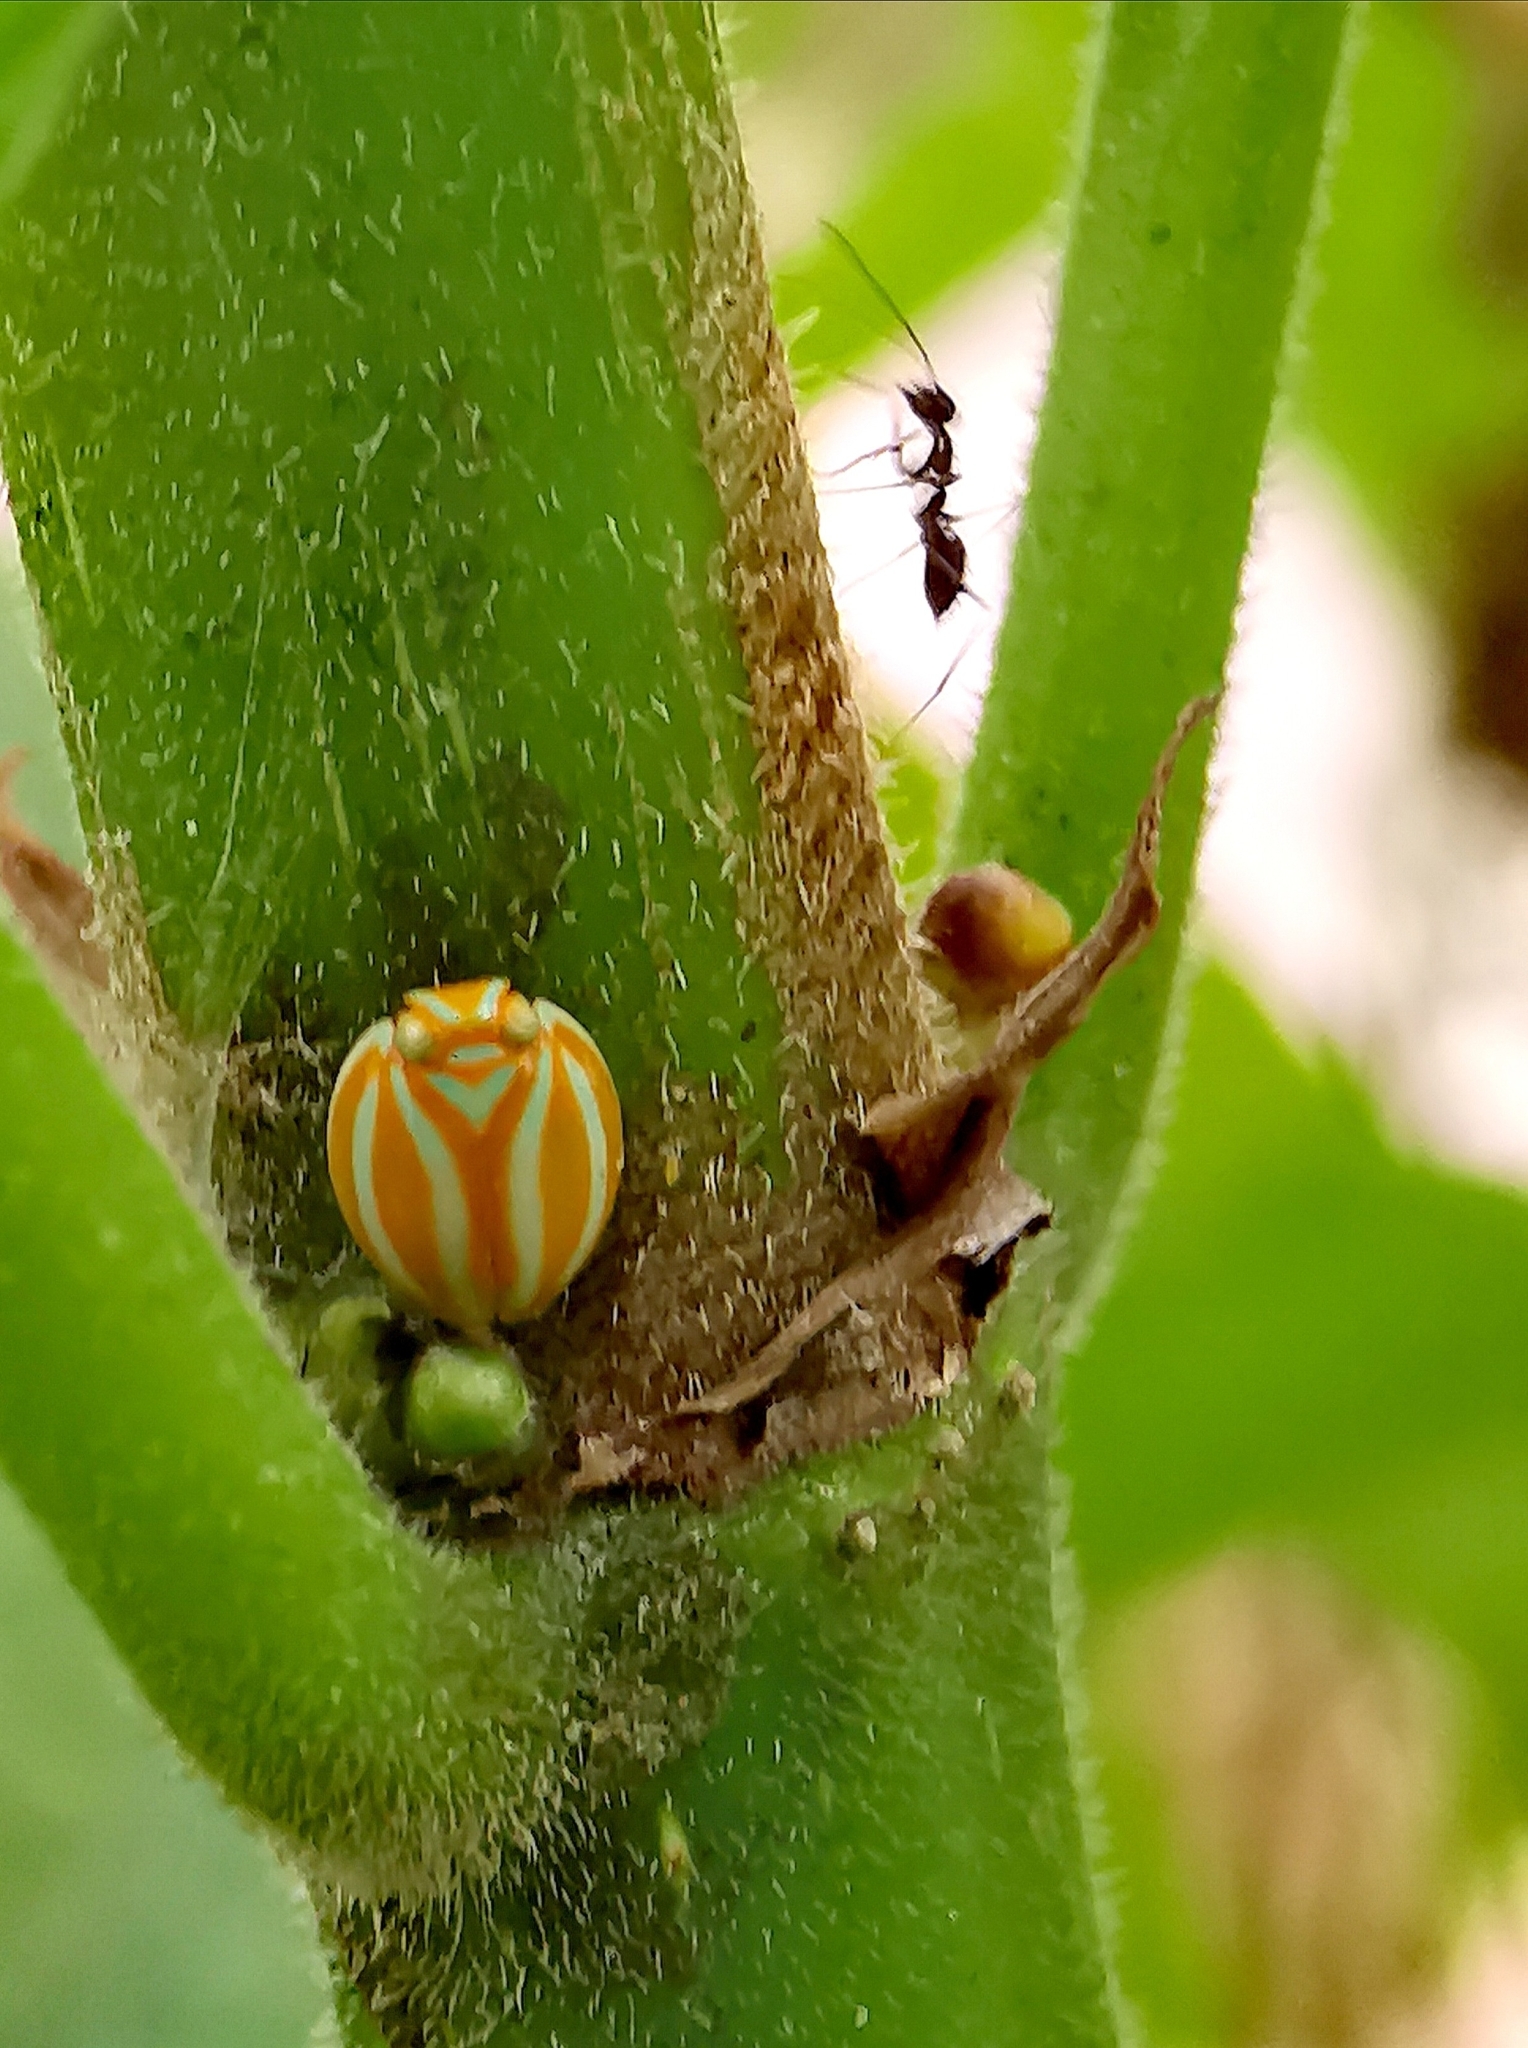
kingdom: Animalia
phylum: Arthropoda
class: Insecta
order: Hemiptera
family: Issidae
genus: Hemisphaerius
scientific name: Hemisphaerius coccinelloides
